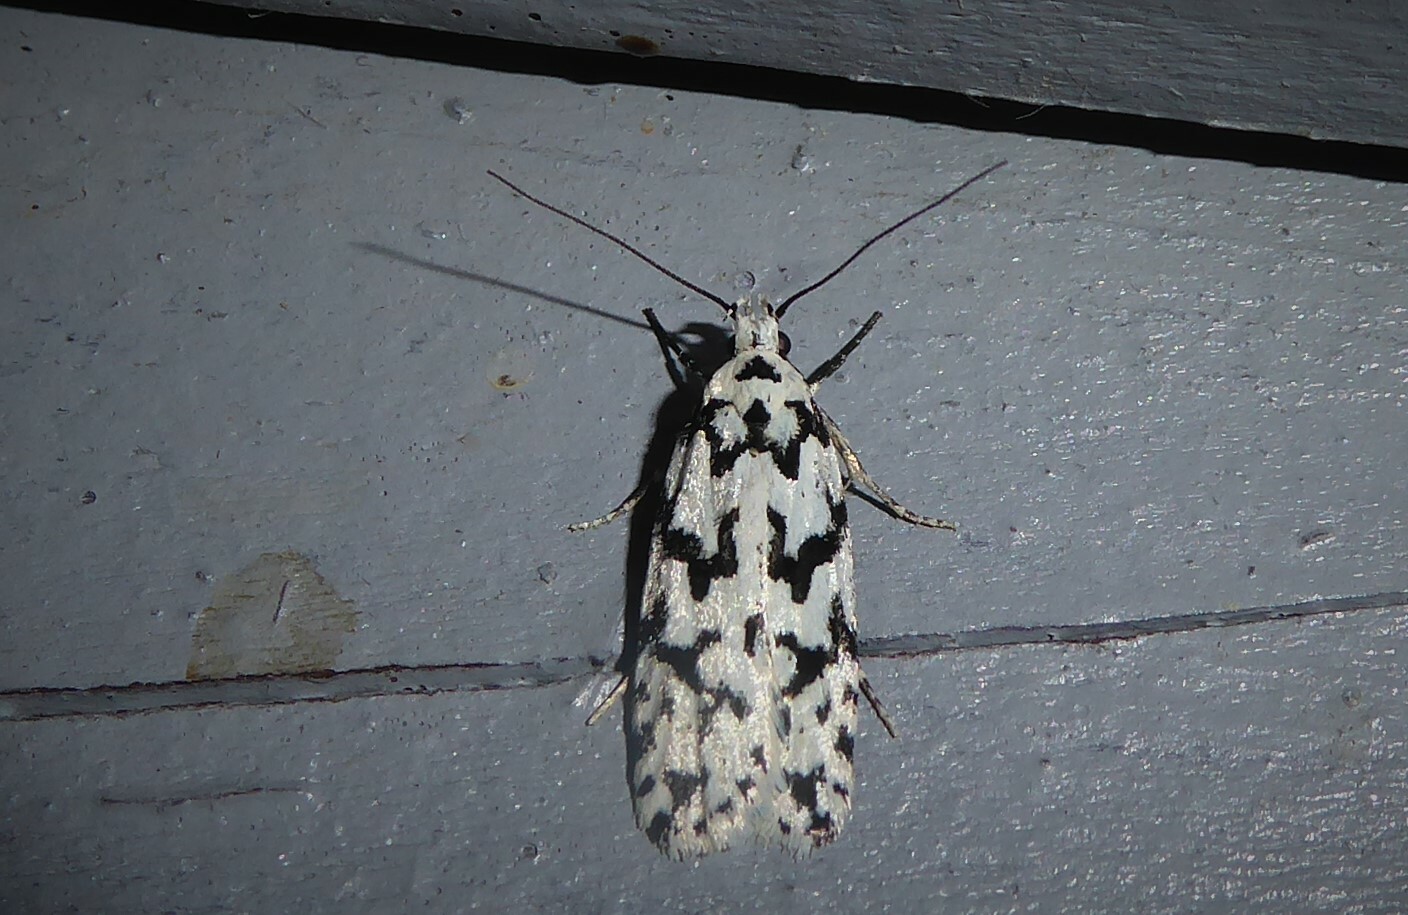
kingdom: Animalia
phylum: Arthropoda
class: Insecta
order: Lepidoptera
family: Oecophoridae
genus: Izatha
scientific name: Izatha katadiktya
